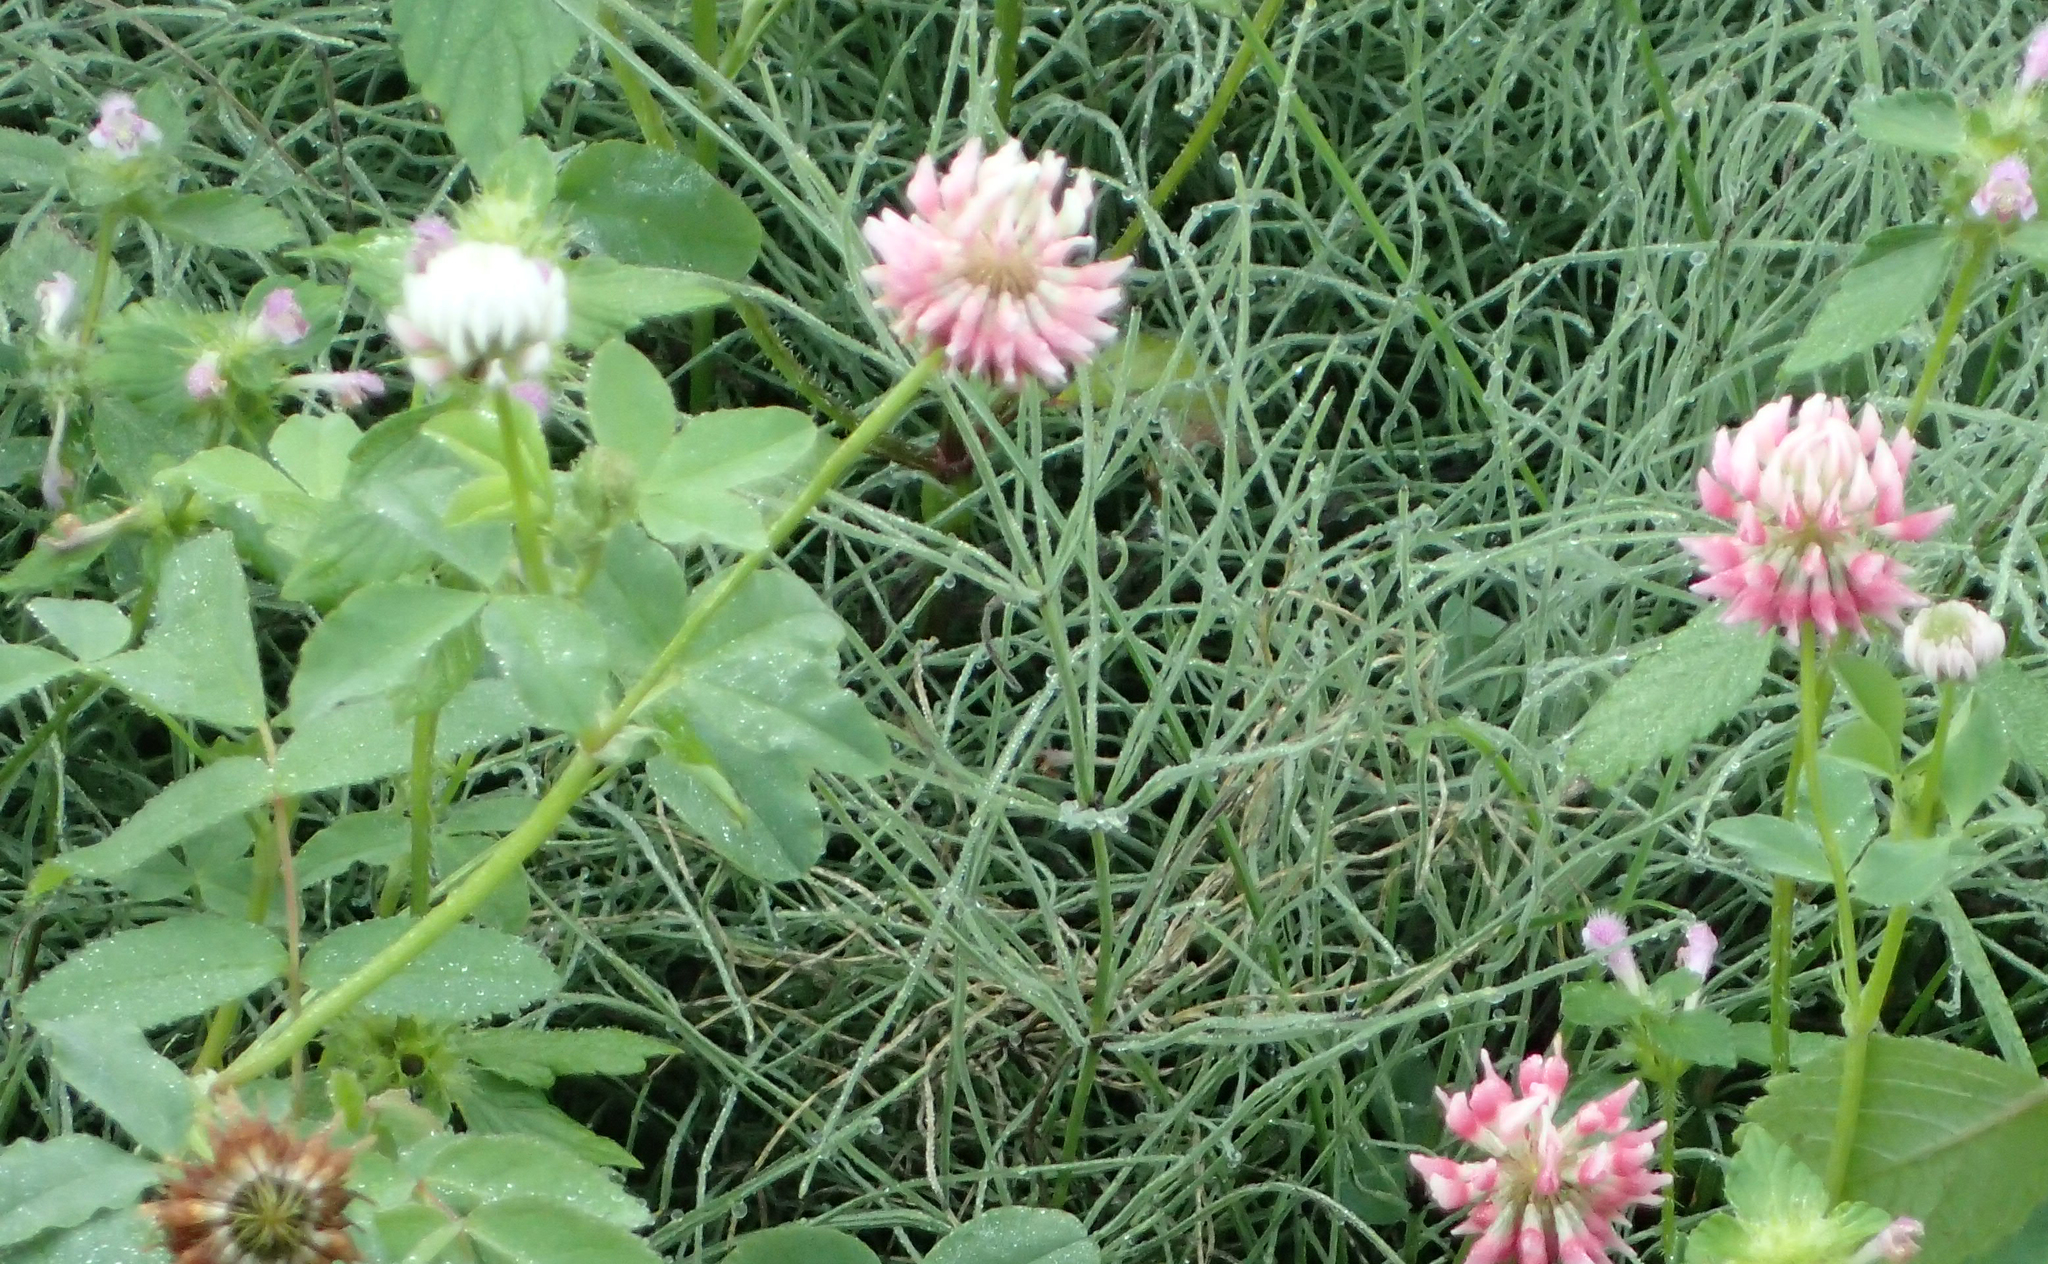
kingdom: Plantae
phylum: Tracheophyta
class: Magnoliopsida
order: Fabales
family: Fabaceae
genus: Trifolium
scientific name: Trifolium hybridum
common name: Alsike clover
